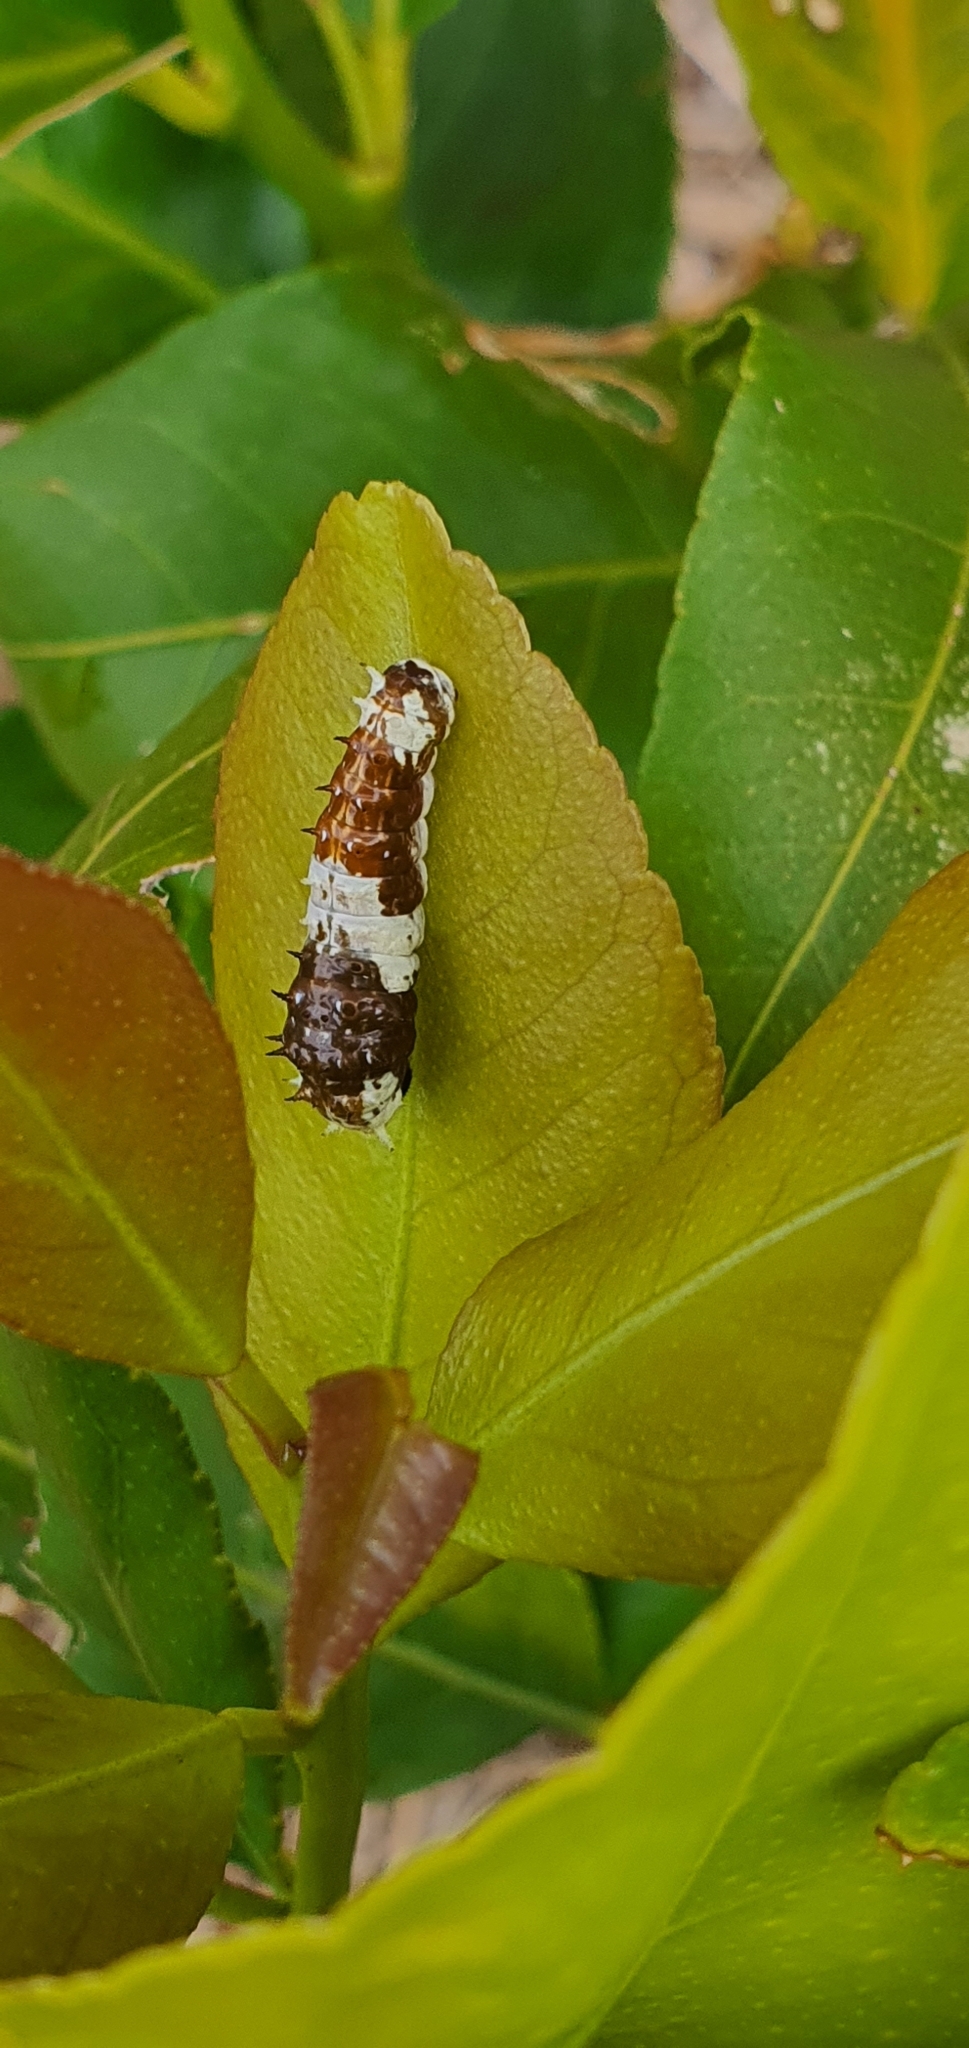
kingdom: Animalia
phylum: Arthropoda
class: Insecta
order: Lepidoptera
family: Papilionidae
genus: Papilio
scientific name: Papilio aegeus
